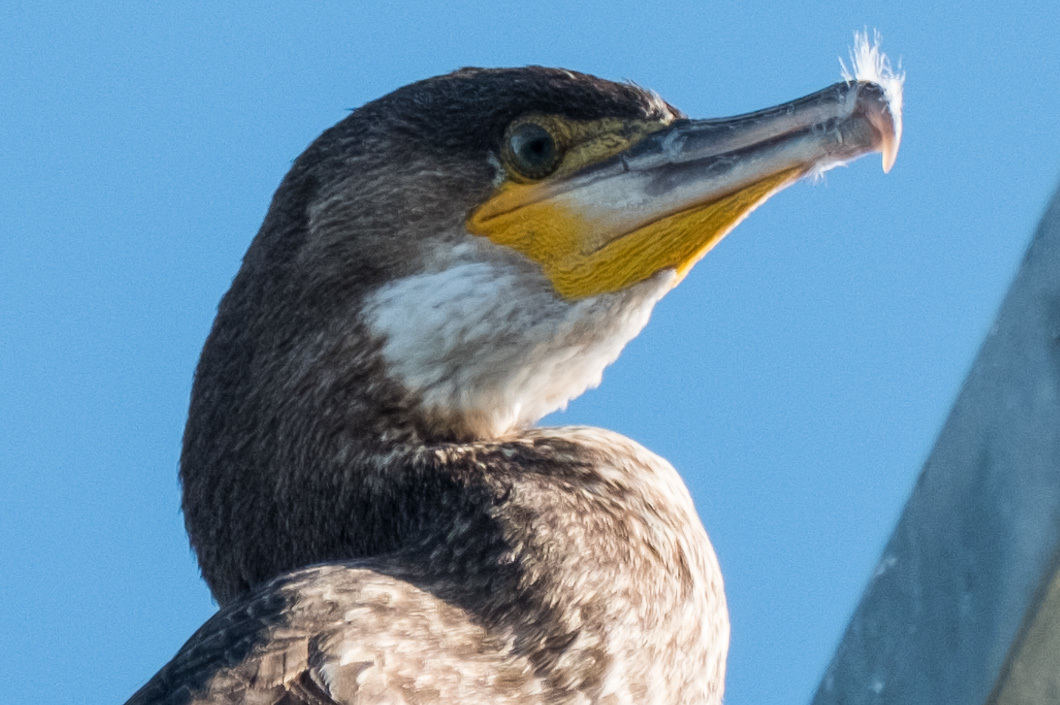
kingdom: Animalia
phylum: Chordata
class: Aves
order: Suliformes
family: Phalacrocoracidae
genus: Phalacrocorax
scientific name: Phalacrocorax carbo
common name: Great cormorant
